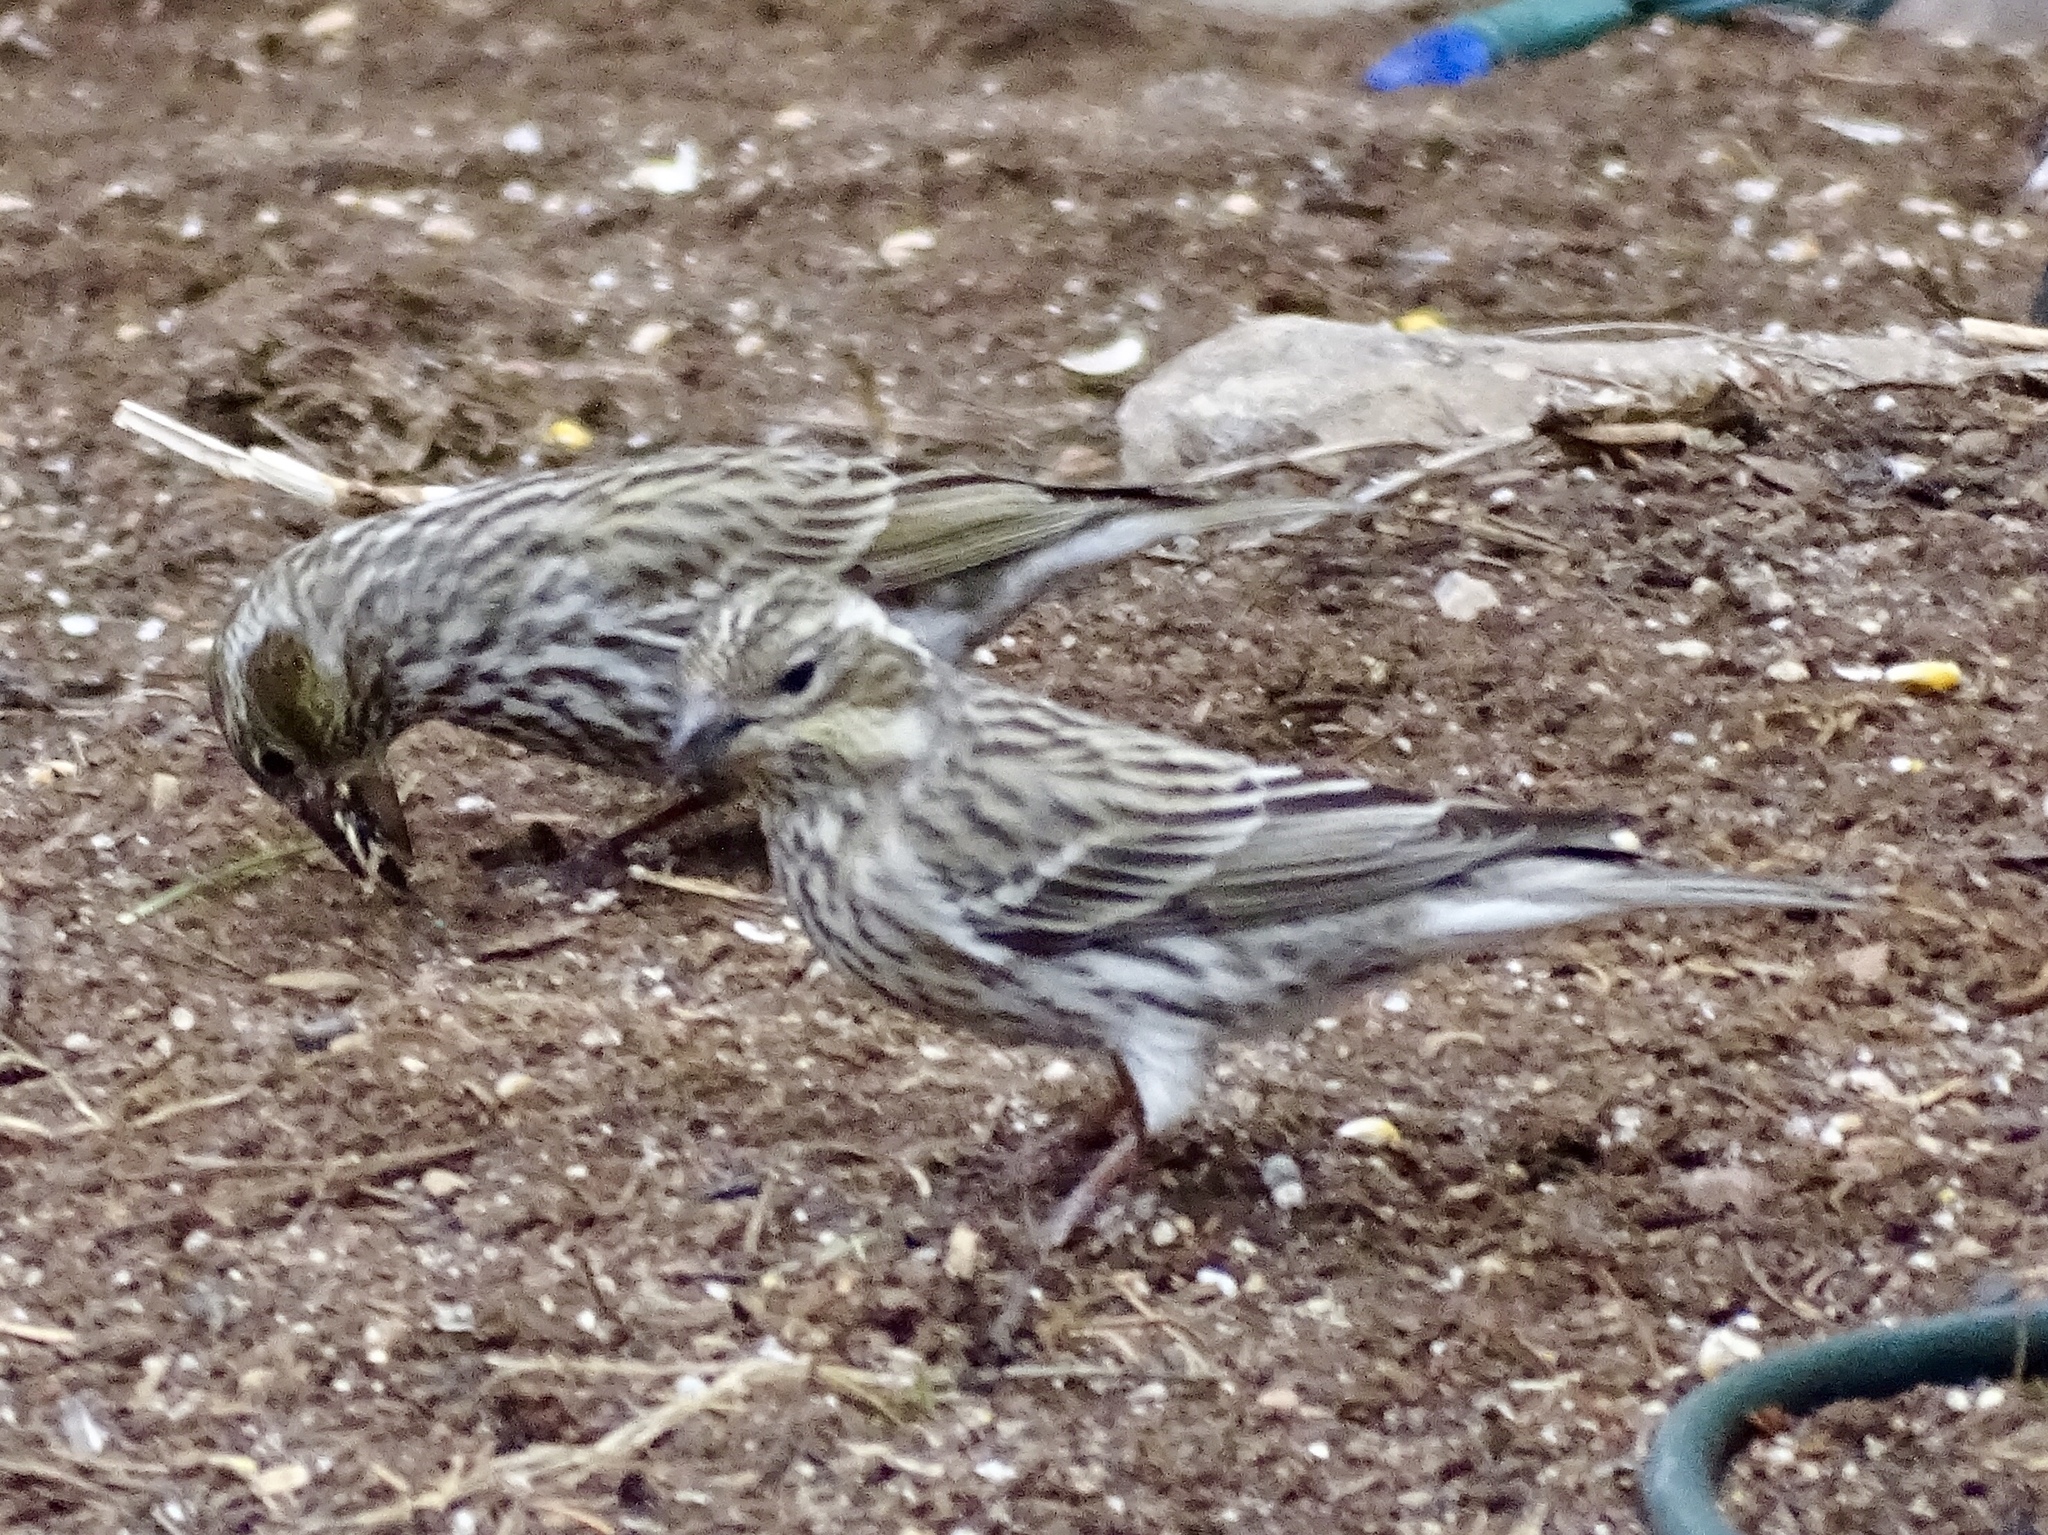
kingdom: Animalia
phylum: Chordata
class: Aves
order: Passeriformes
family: Fringillidae
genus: Haemorhous
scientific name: Haemorhous cassinii
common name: Cassin's finch
